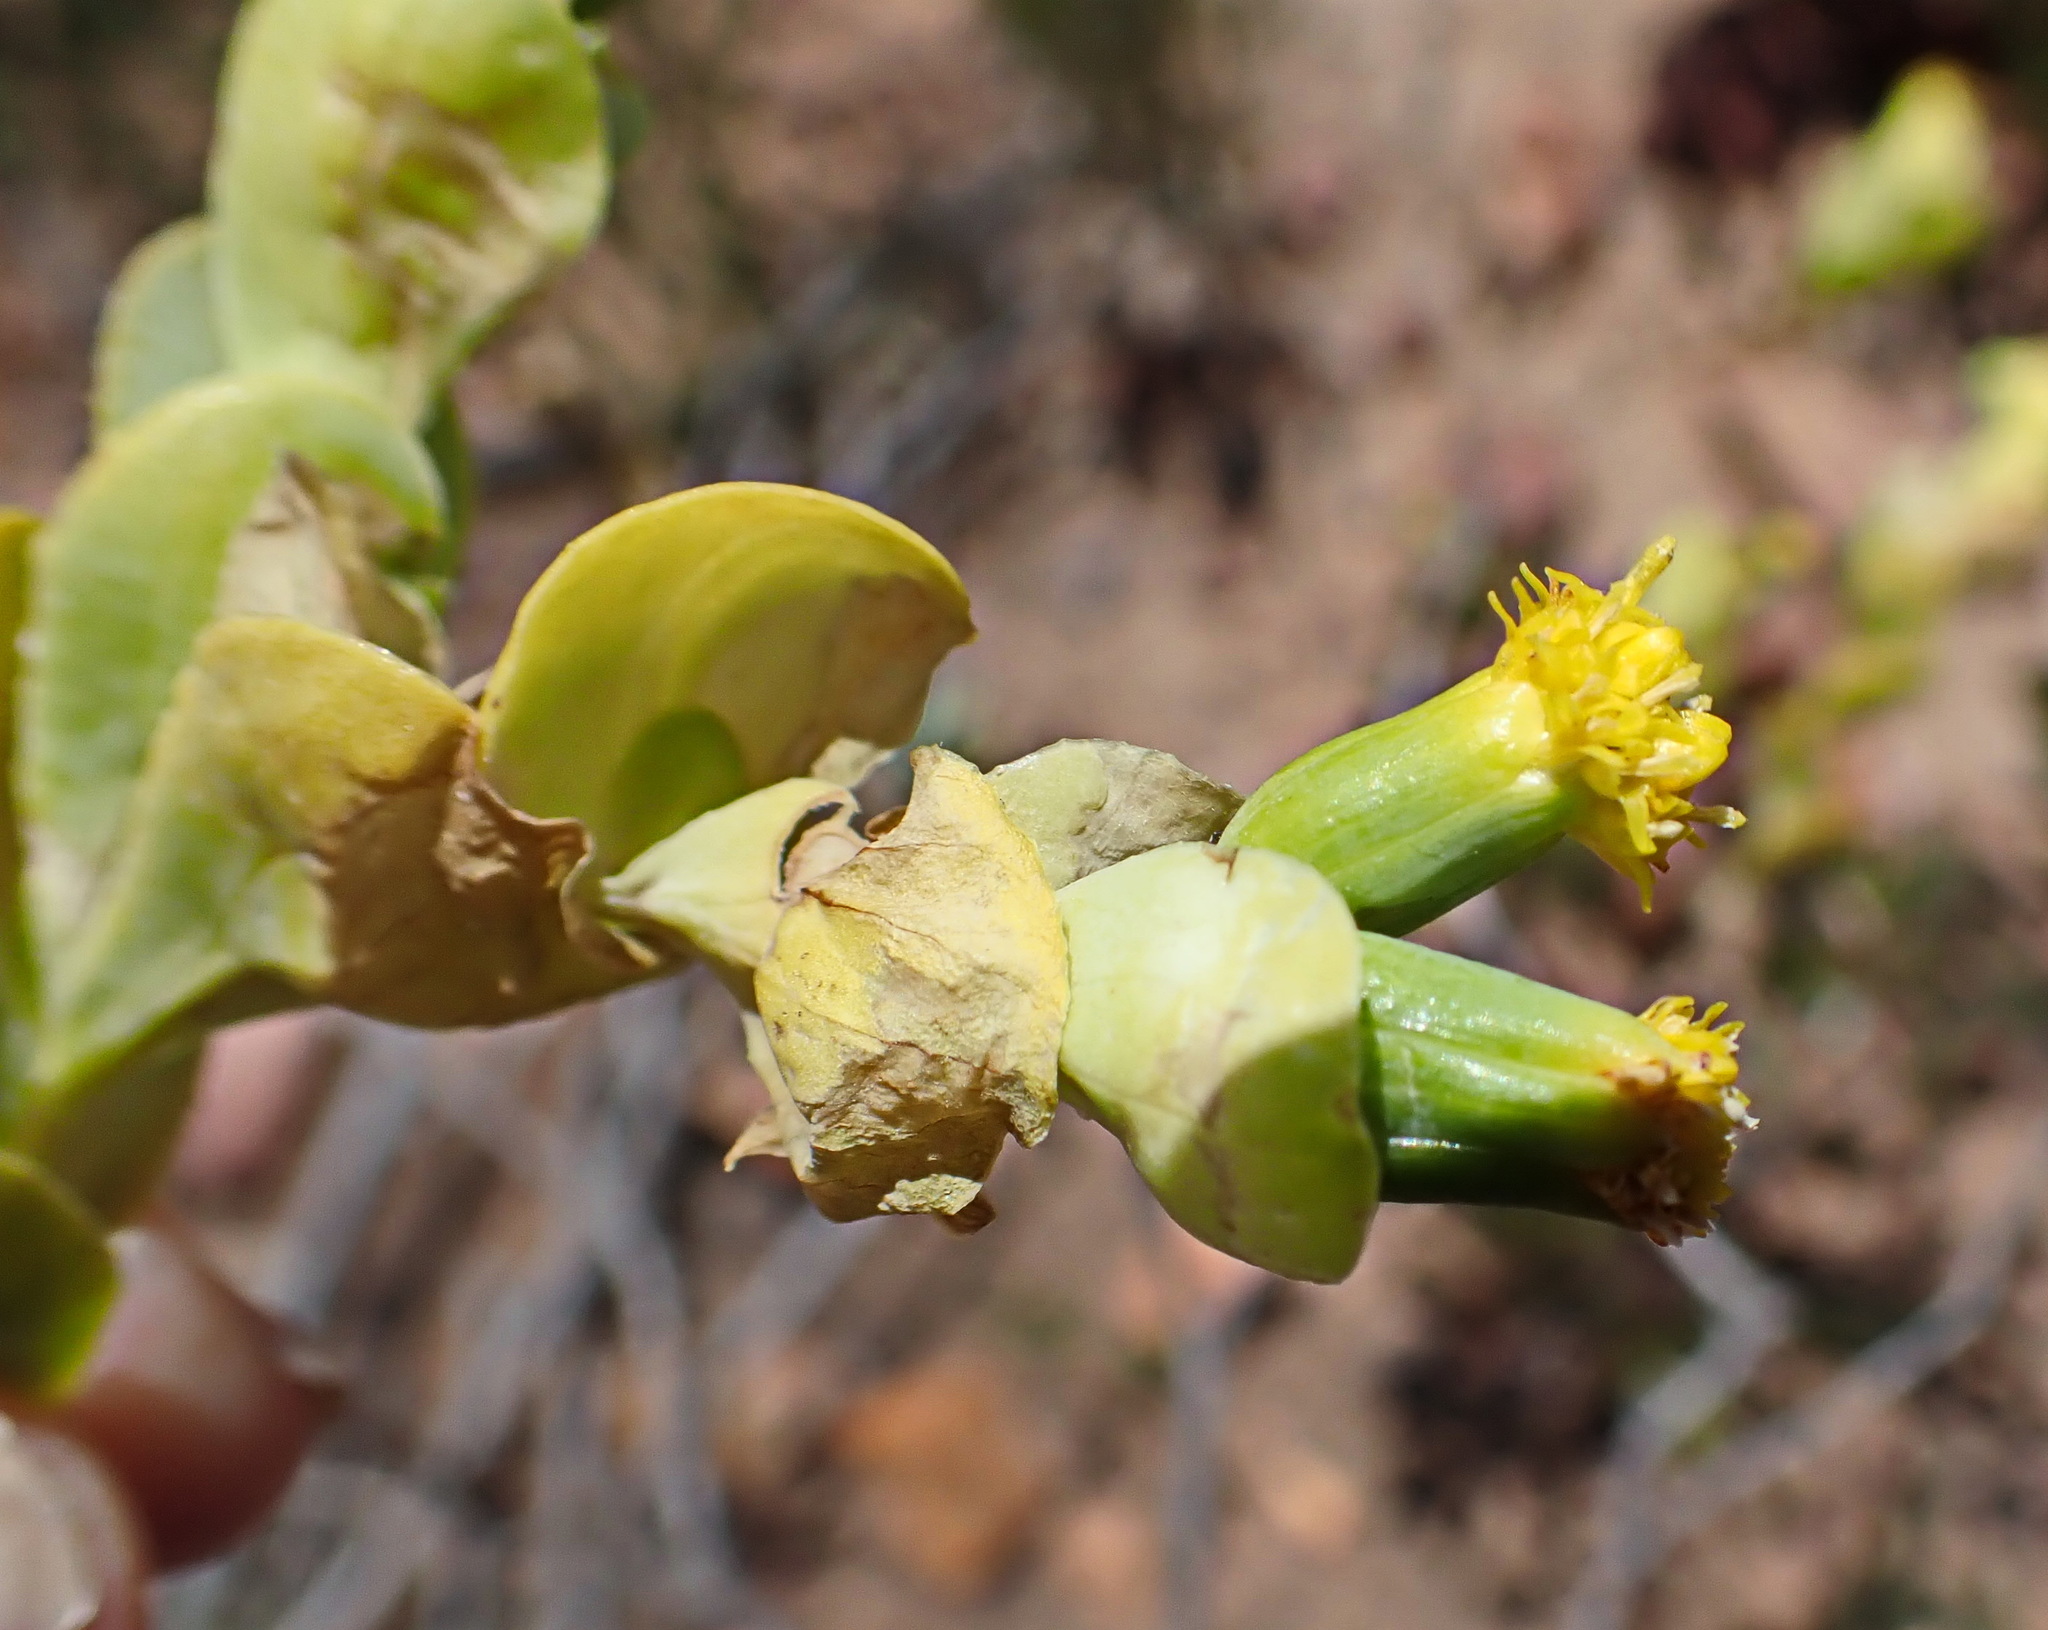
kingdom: Plantae
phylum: Tracheophyta
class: Magnoliopsida
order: Asterales
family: Asteraceae
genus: Hertia
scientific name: Hertia alata
